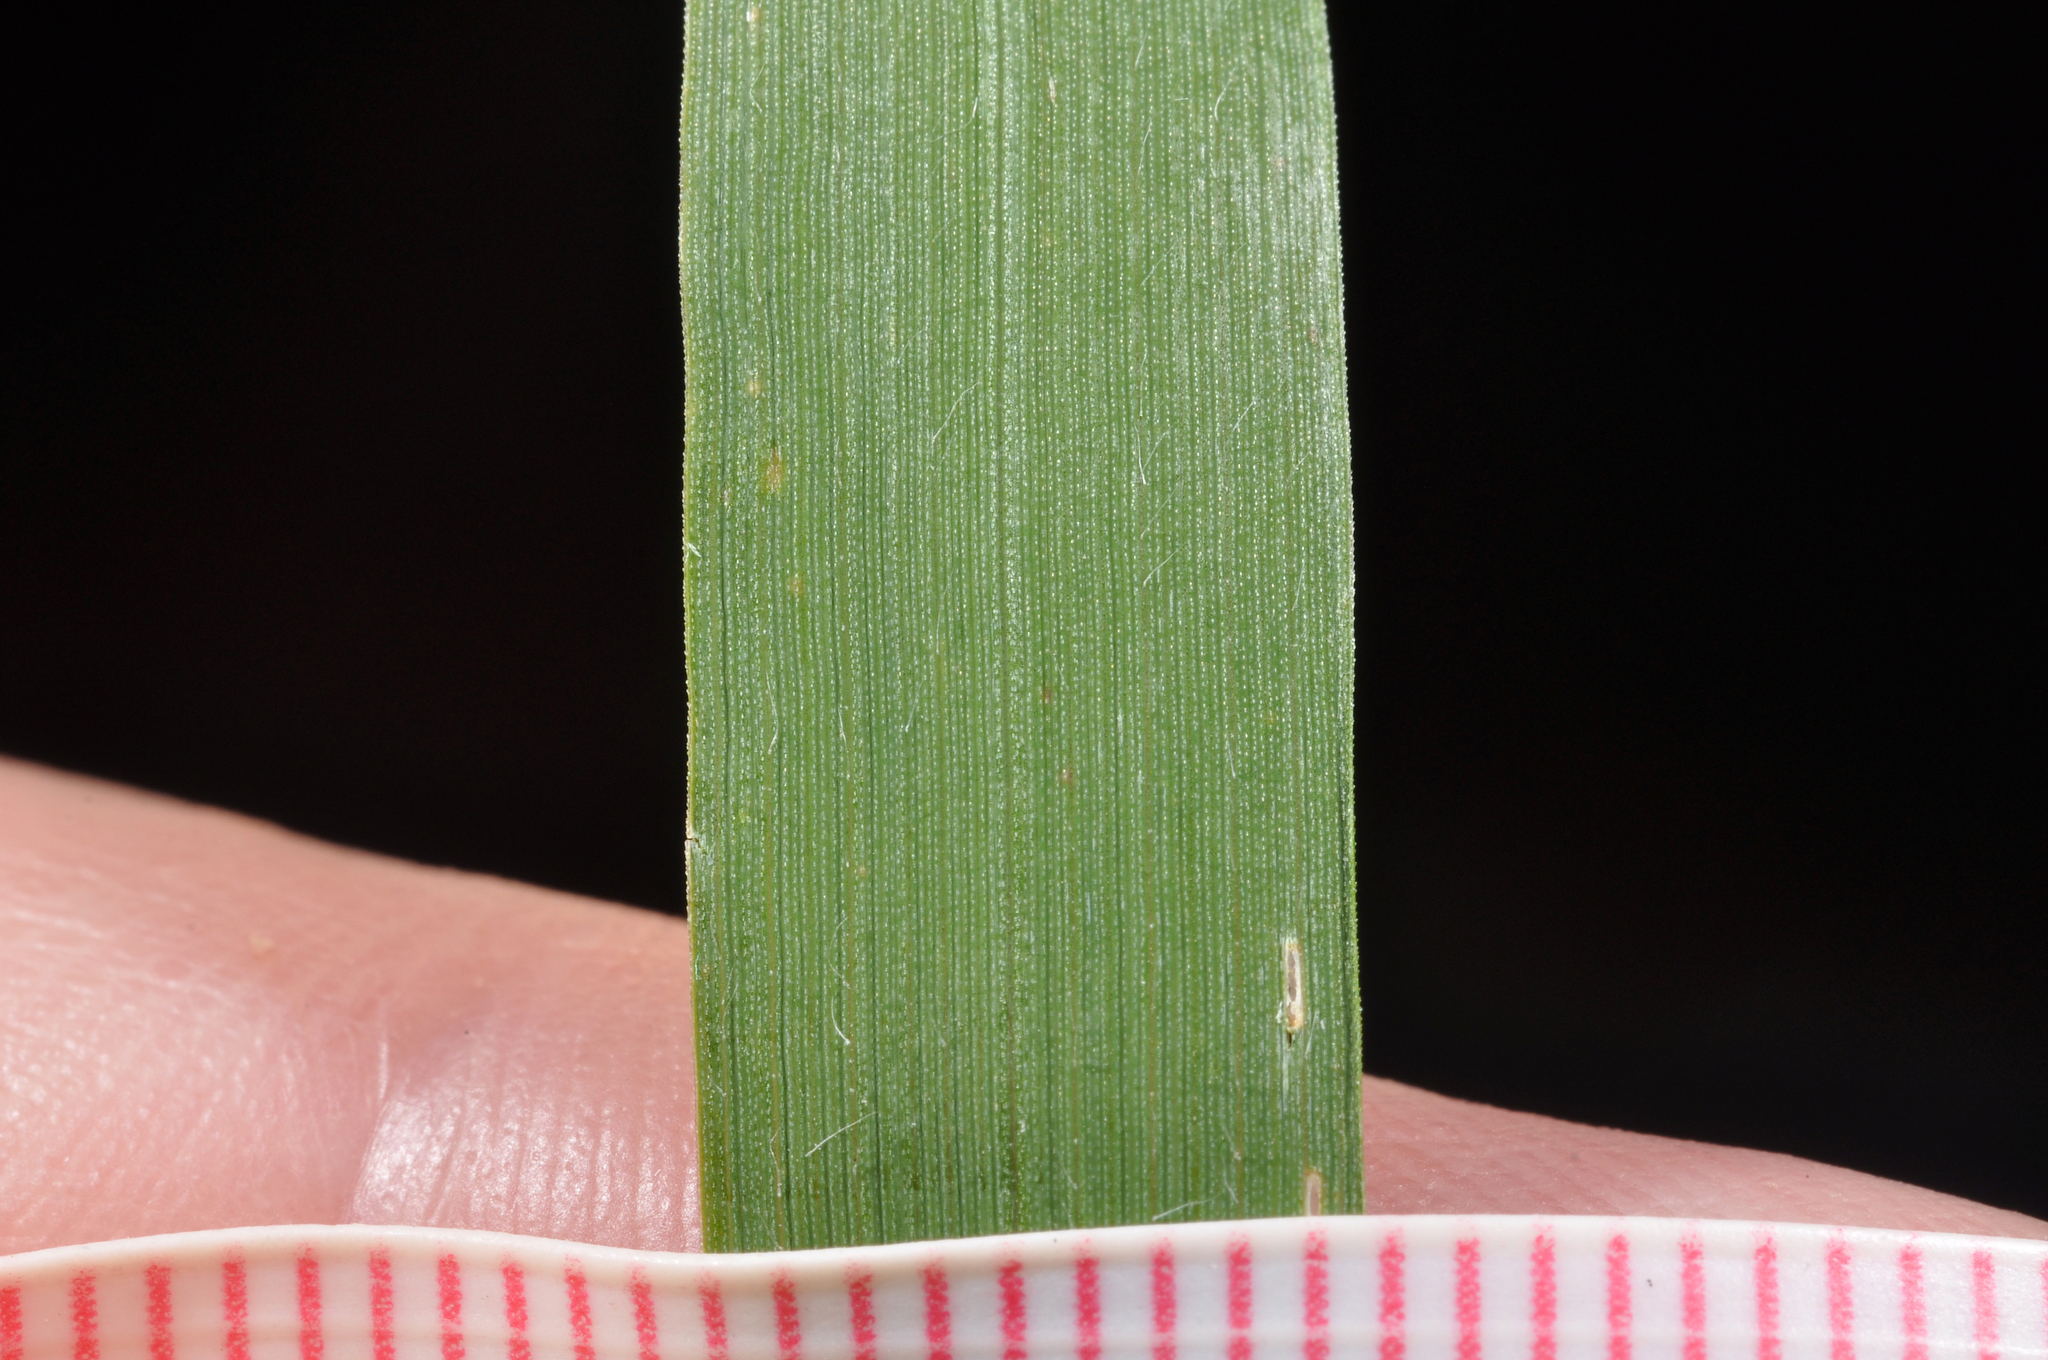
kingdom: Plantae
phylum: Tracheophyta
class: Liliopsida
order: Poales
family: Poaceae
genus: Arrhenatherum
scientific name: Arrhenatherum elatius
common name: Tall oatgrass
